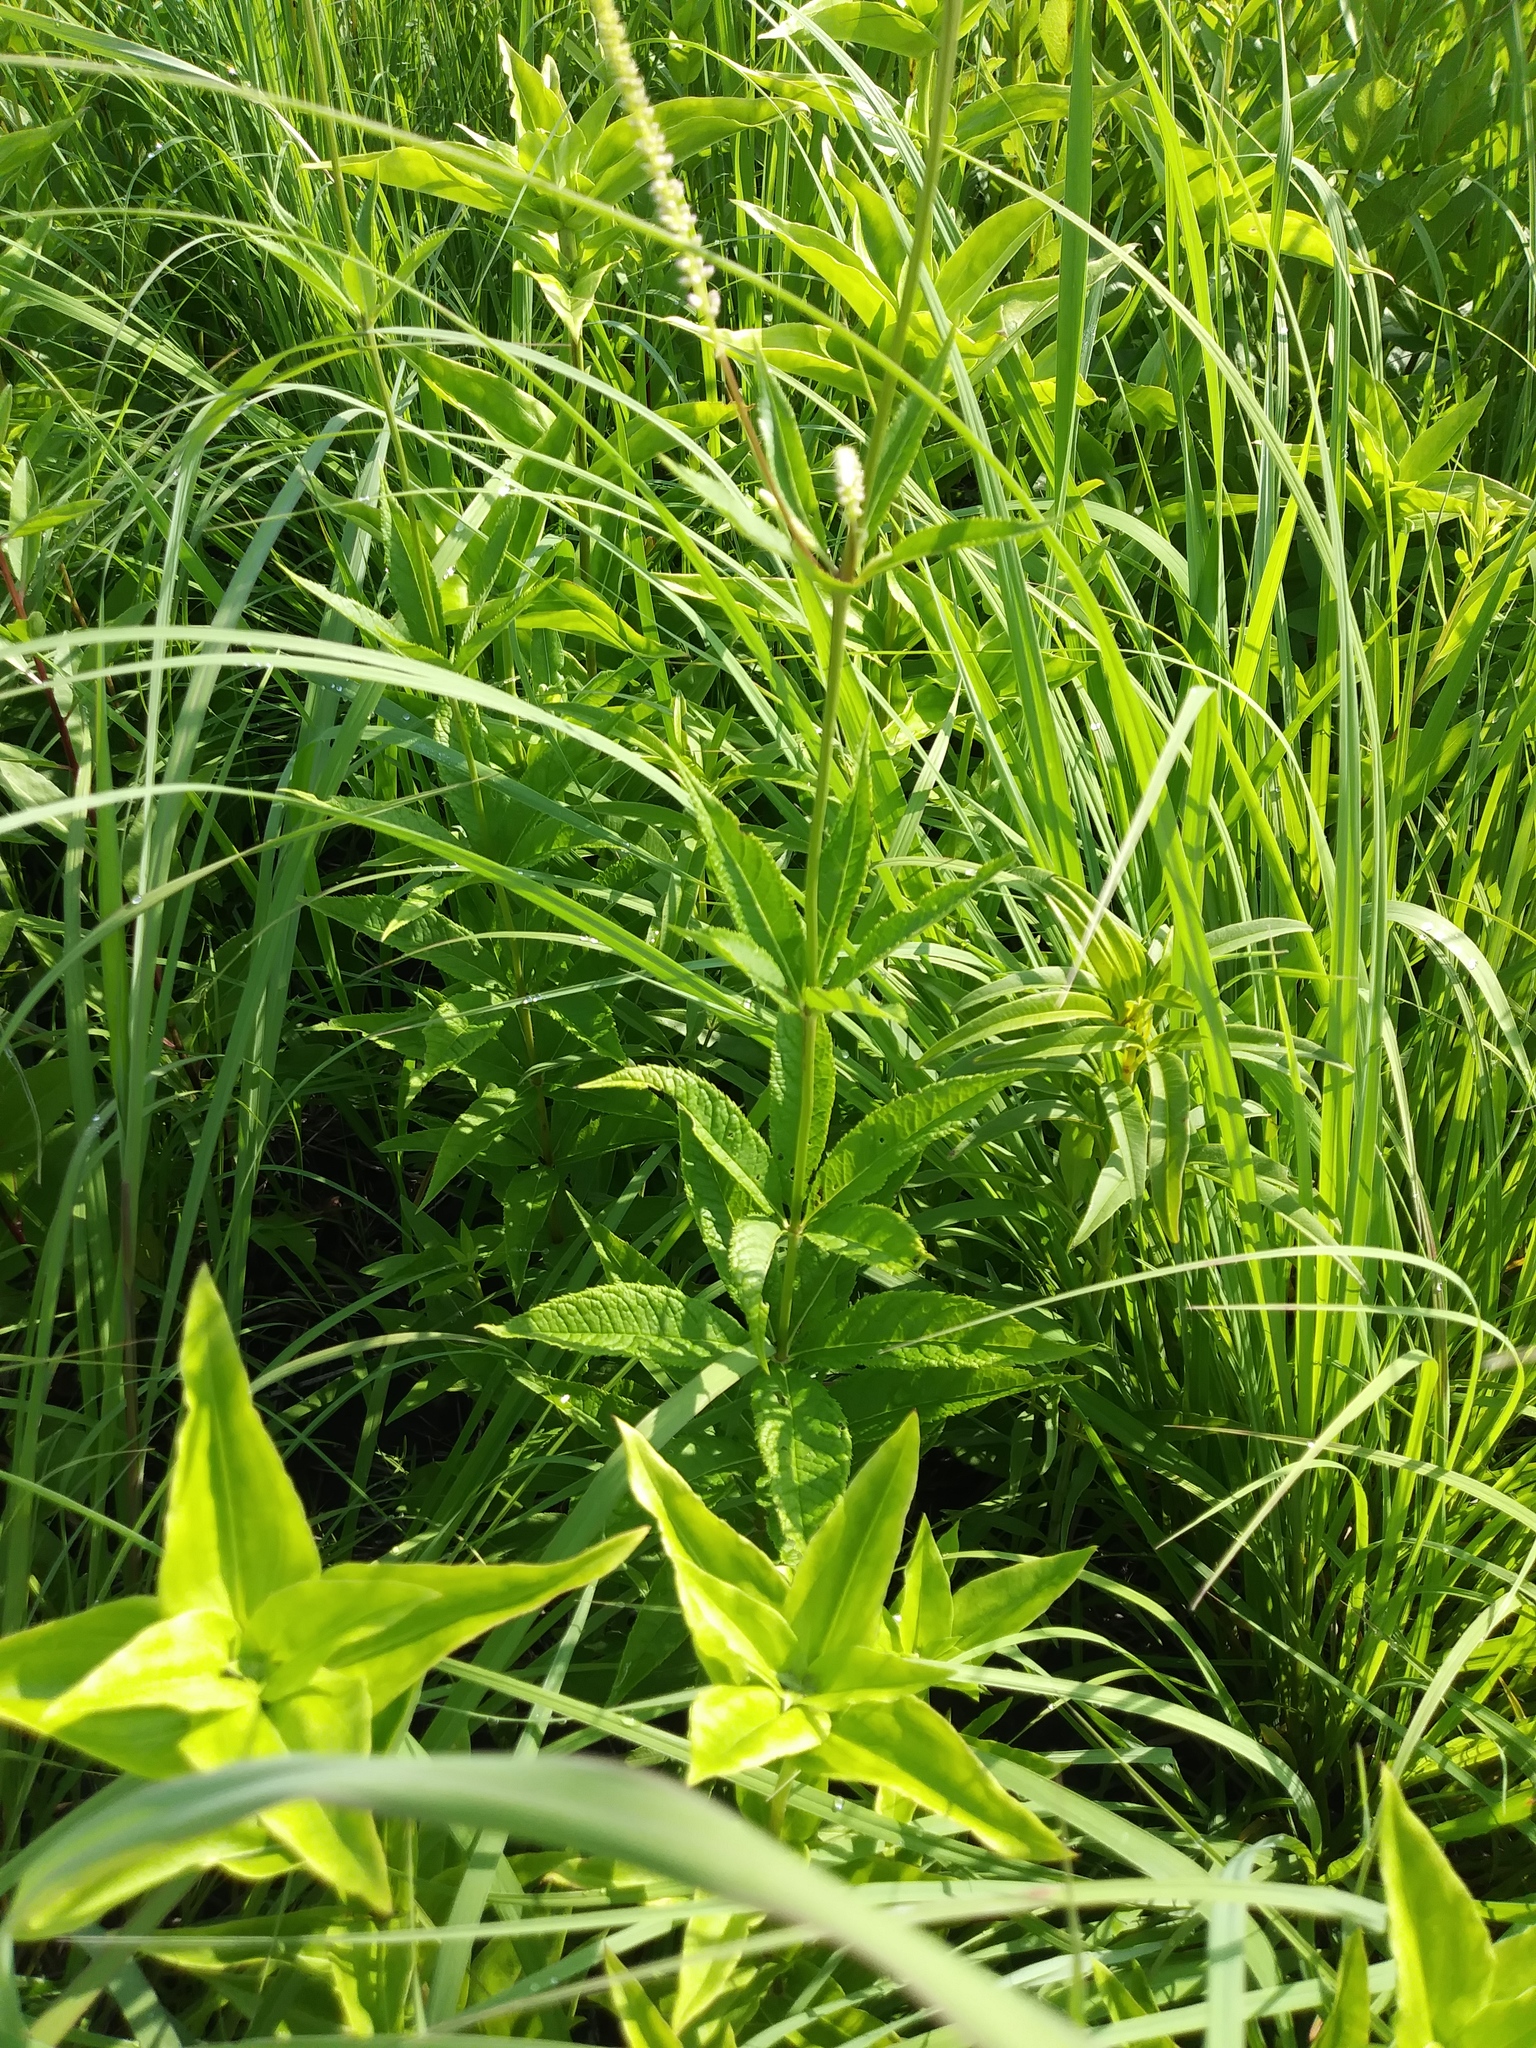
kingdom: Plantae
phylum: Tracheophyta
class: Magnoliopsida
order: Lamiales
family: Plantaginaceae
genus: Veronicastrum
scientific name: Veronicastrum virginicum
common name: Blackroot
